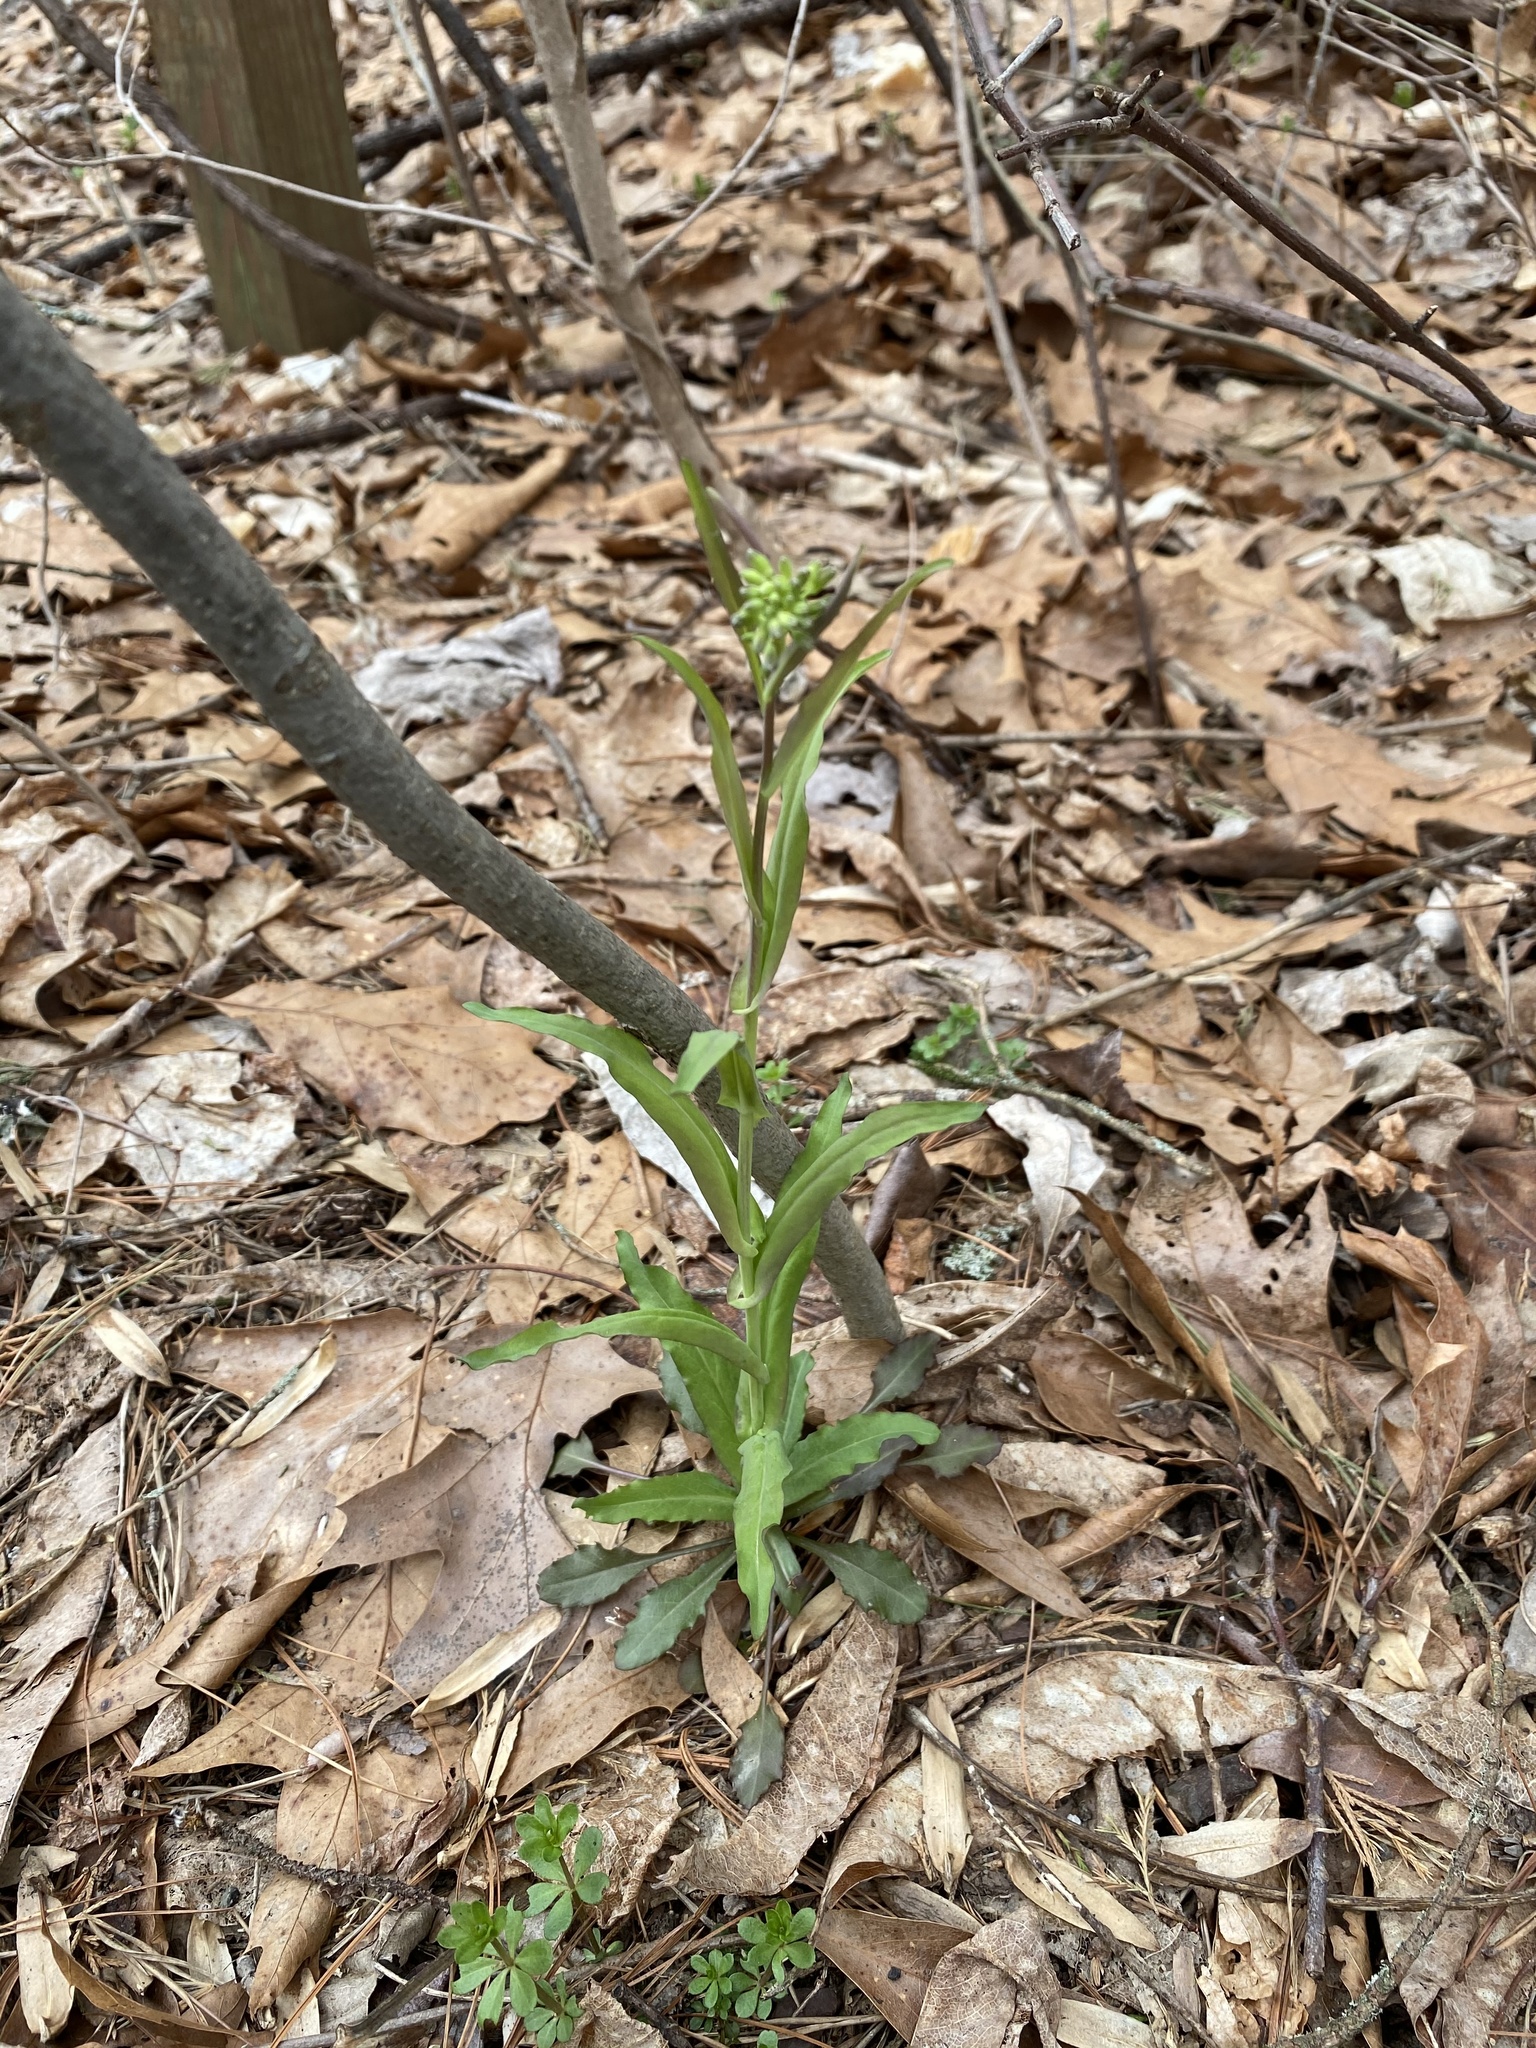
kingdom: Plantae
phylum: Tracheophyta
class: Magnoliopsida
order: Brassicales
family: Brassicaceae
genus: Borodinia
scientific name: Borodinia laevigata
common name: Smooth rockcress
